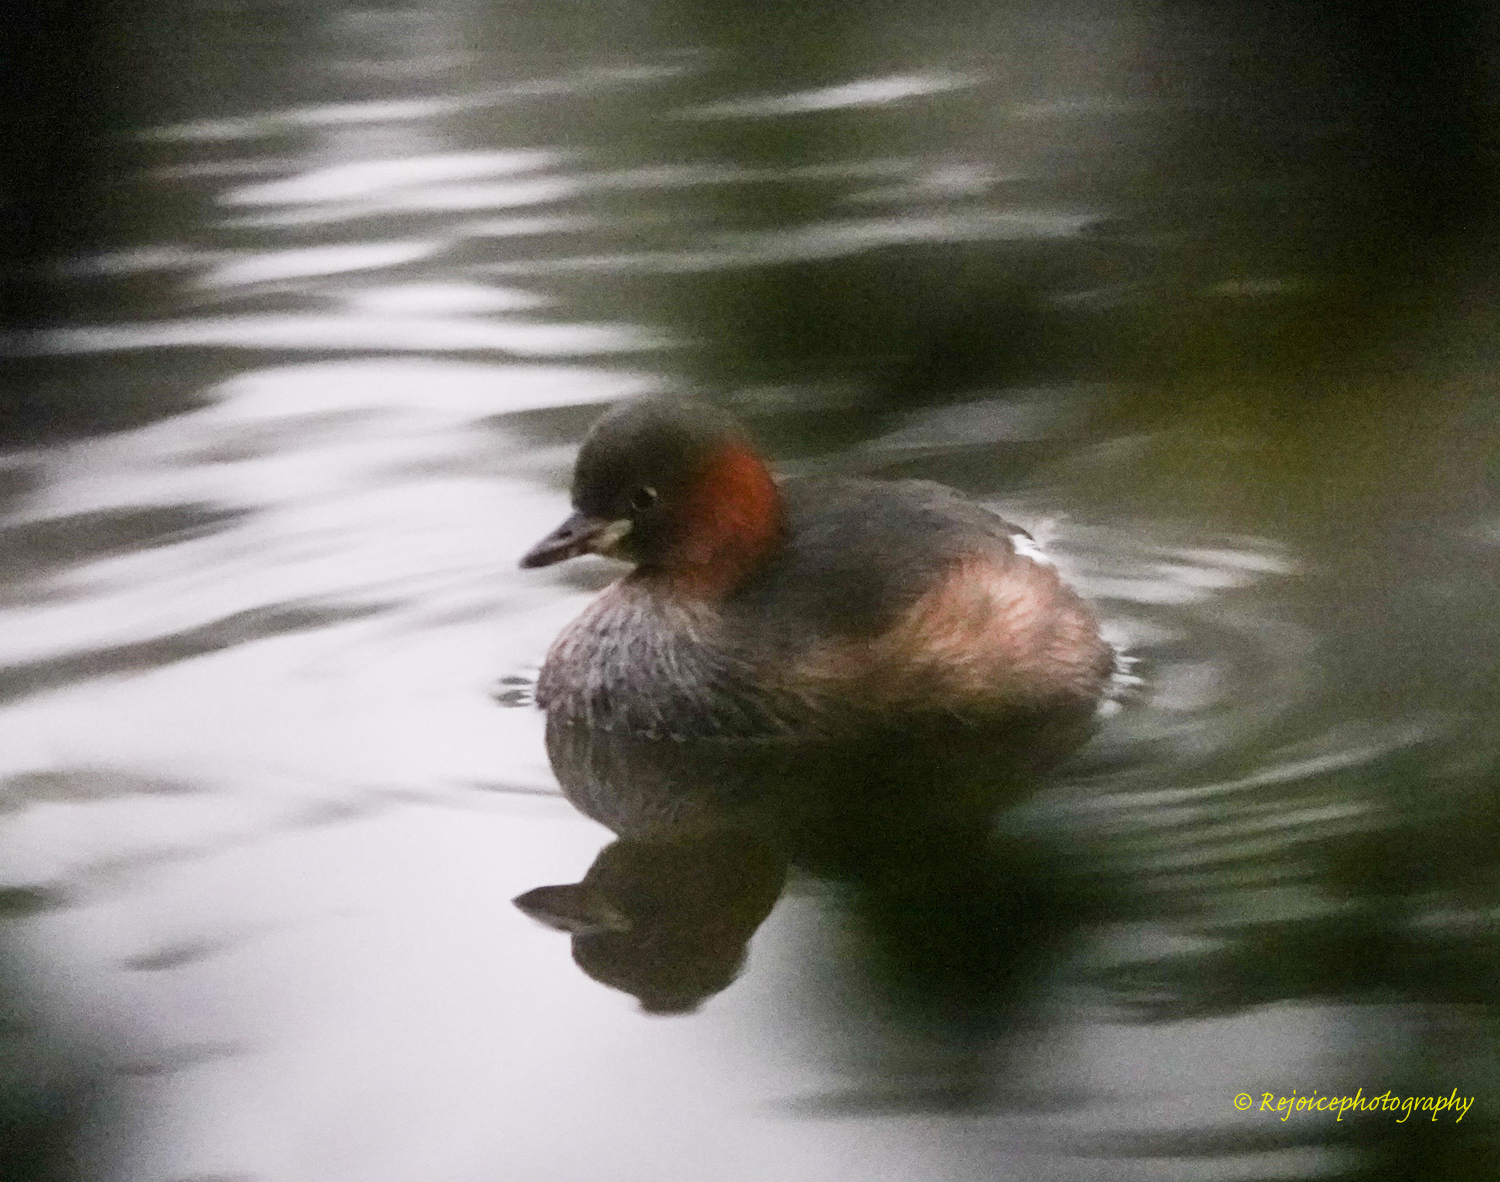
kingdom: Animalia
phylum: Chordata
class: Aves
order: Podicipediformes
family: Podicipedidae
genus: Tachybaptus
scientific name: Tachybaptus ruficollis
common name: Little grebe
